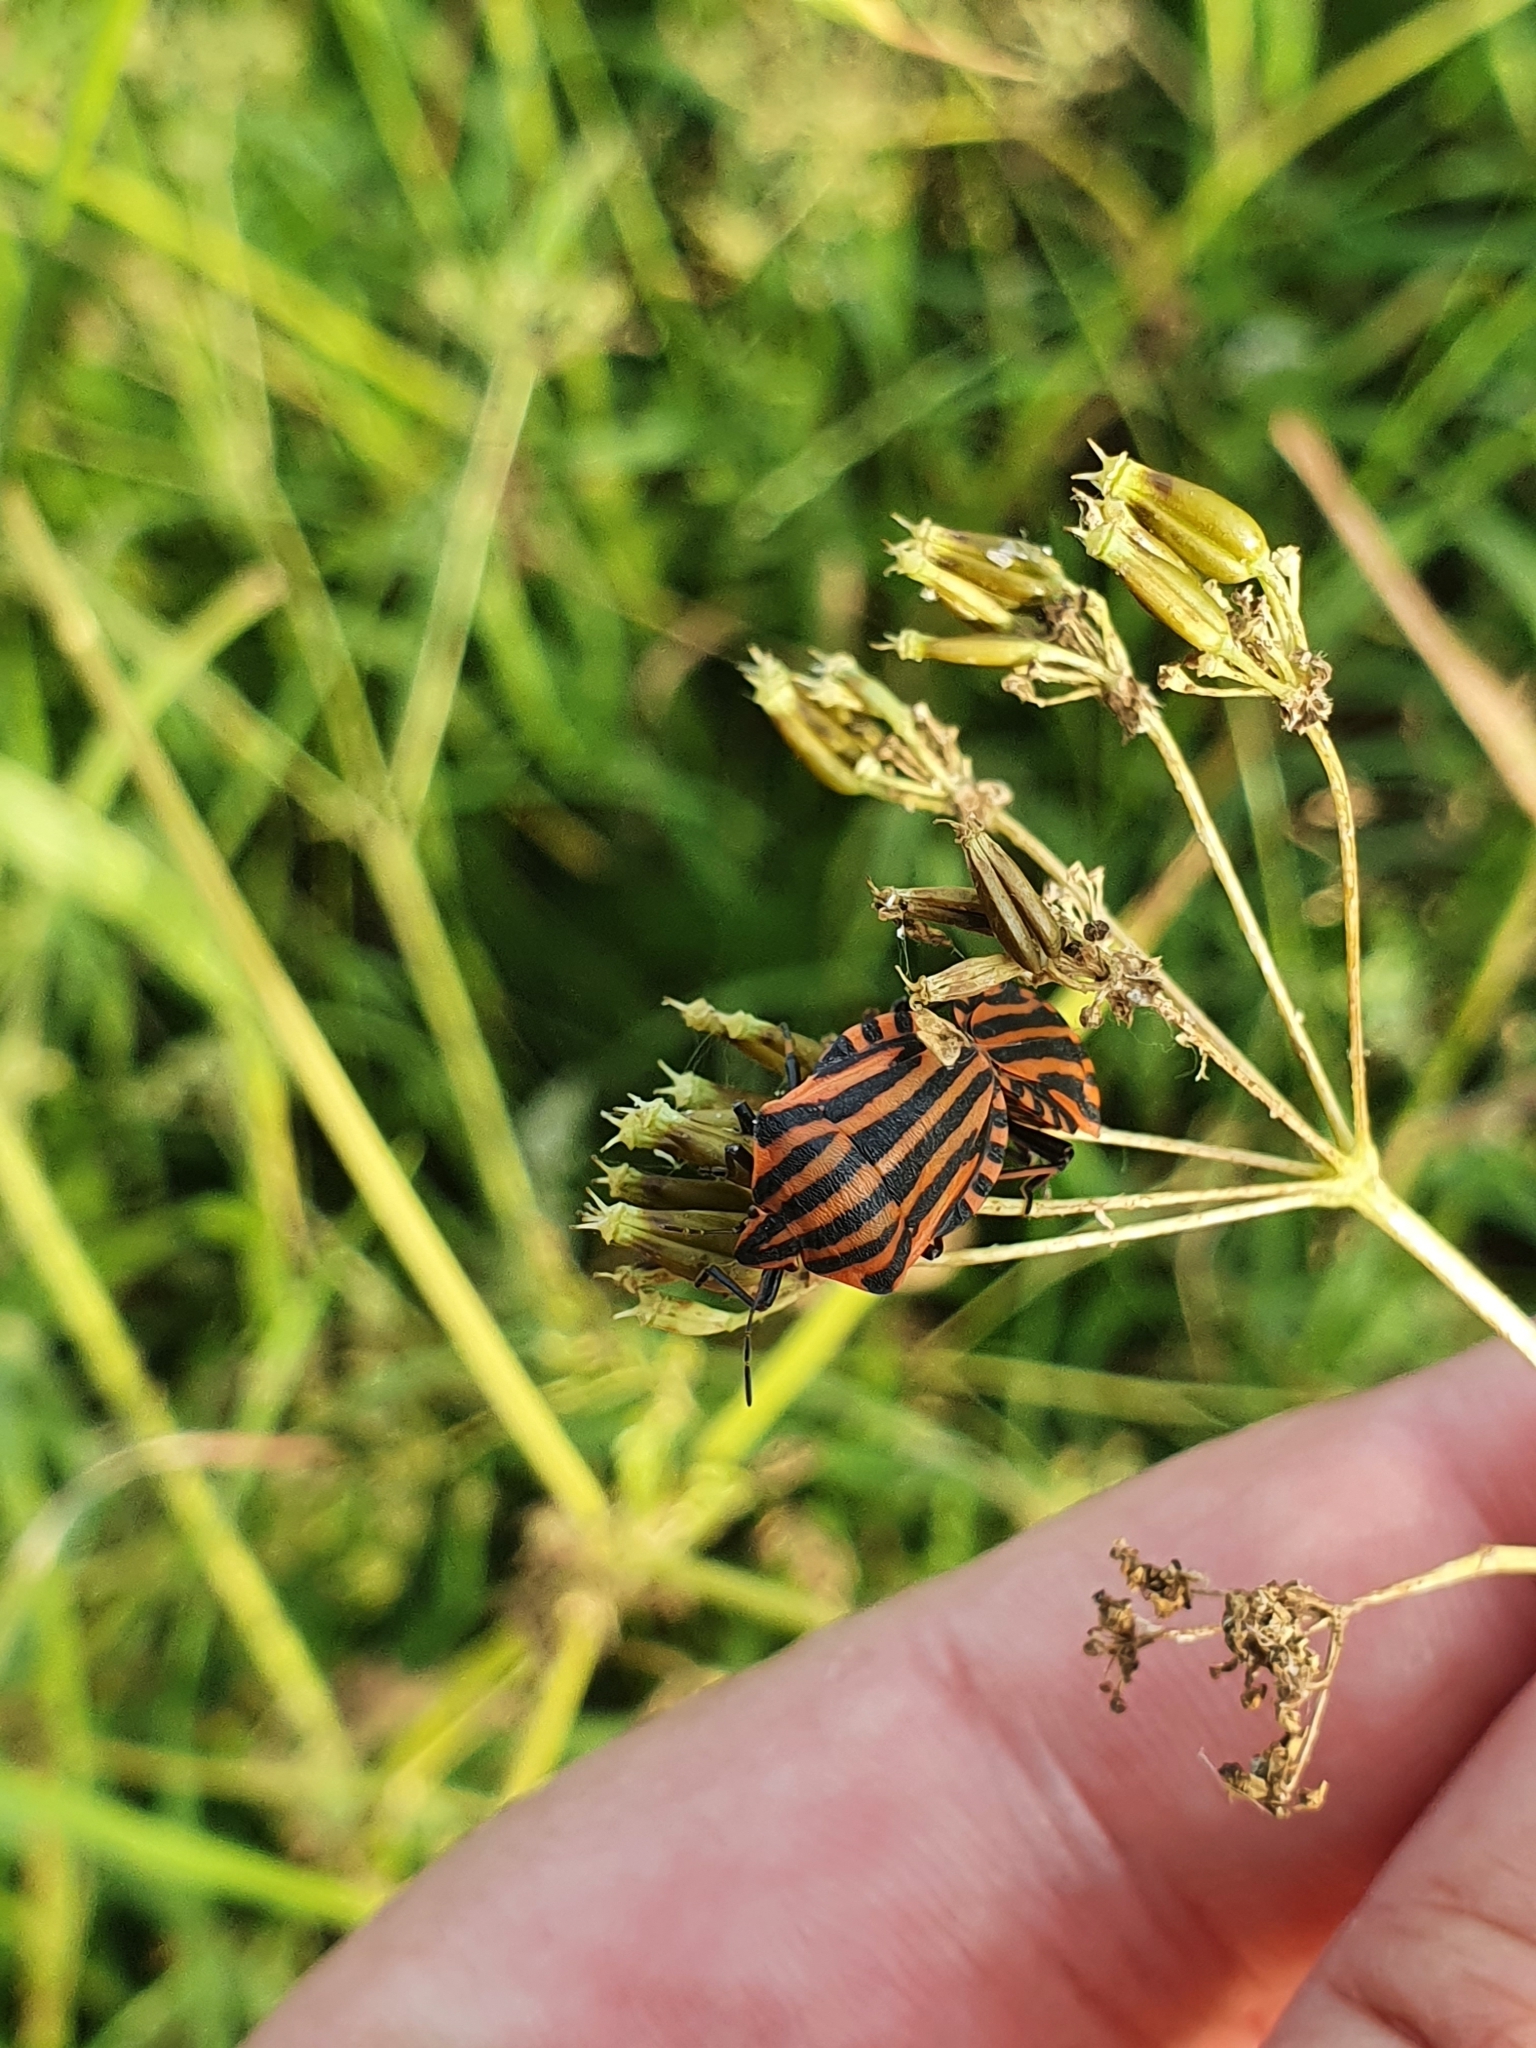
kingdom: Animalia
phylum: Arthropoda
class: Insecta
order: Hemiptera
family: Pentatomidae
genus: Graphosoma
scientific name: Graphosoma italicum
